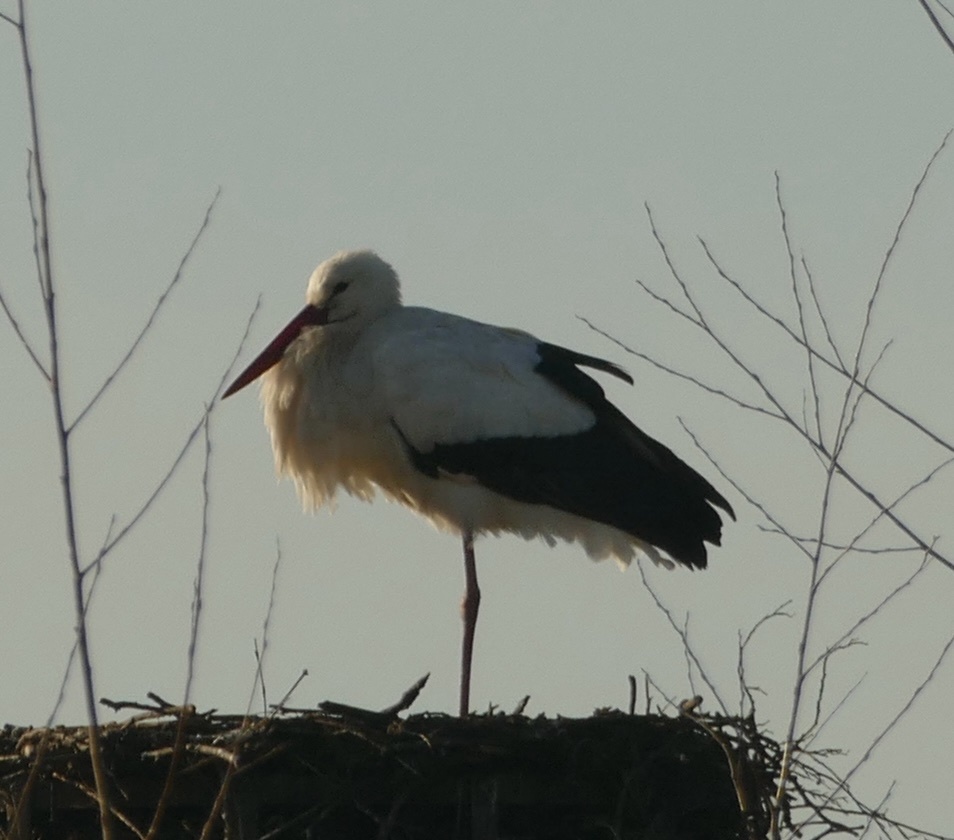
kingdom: Animalia
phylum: Chordata
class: Aves
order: Ciconiiformes
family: Ciconiidae
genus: Ciconia
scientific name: Ciconia ciconia
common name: White stork
